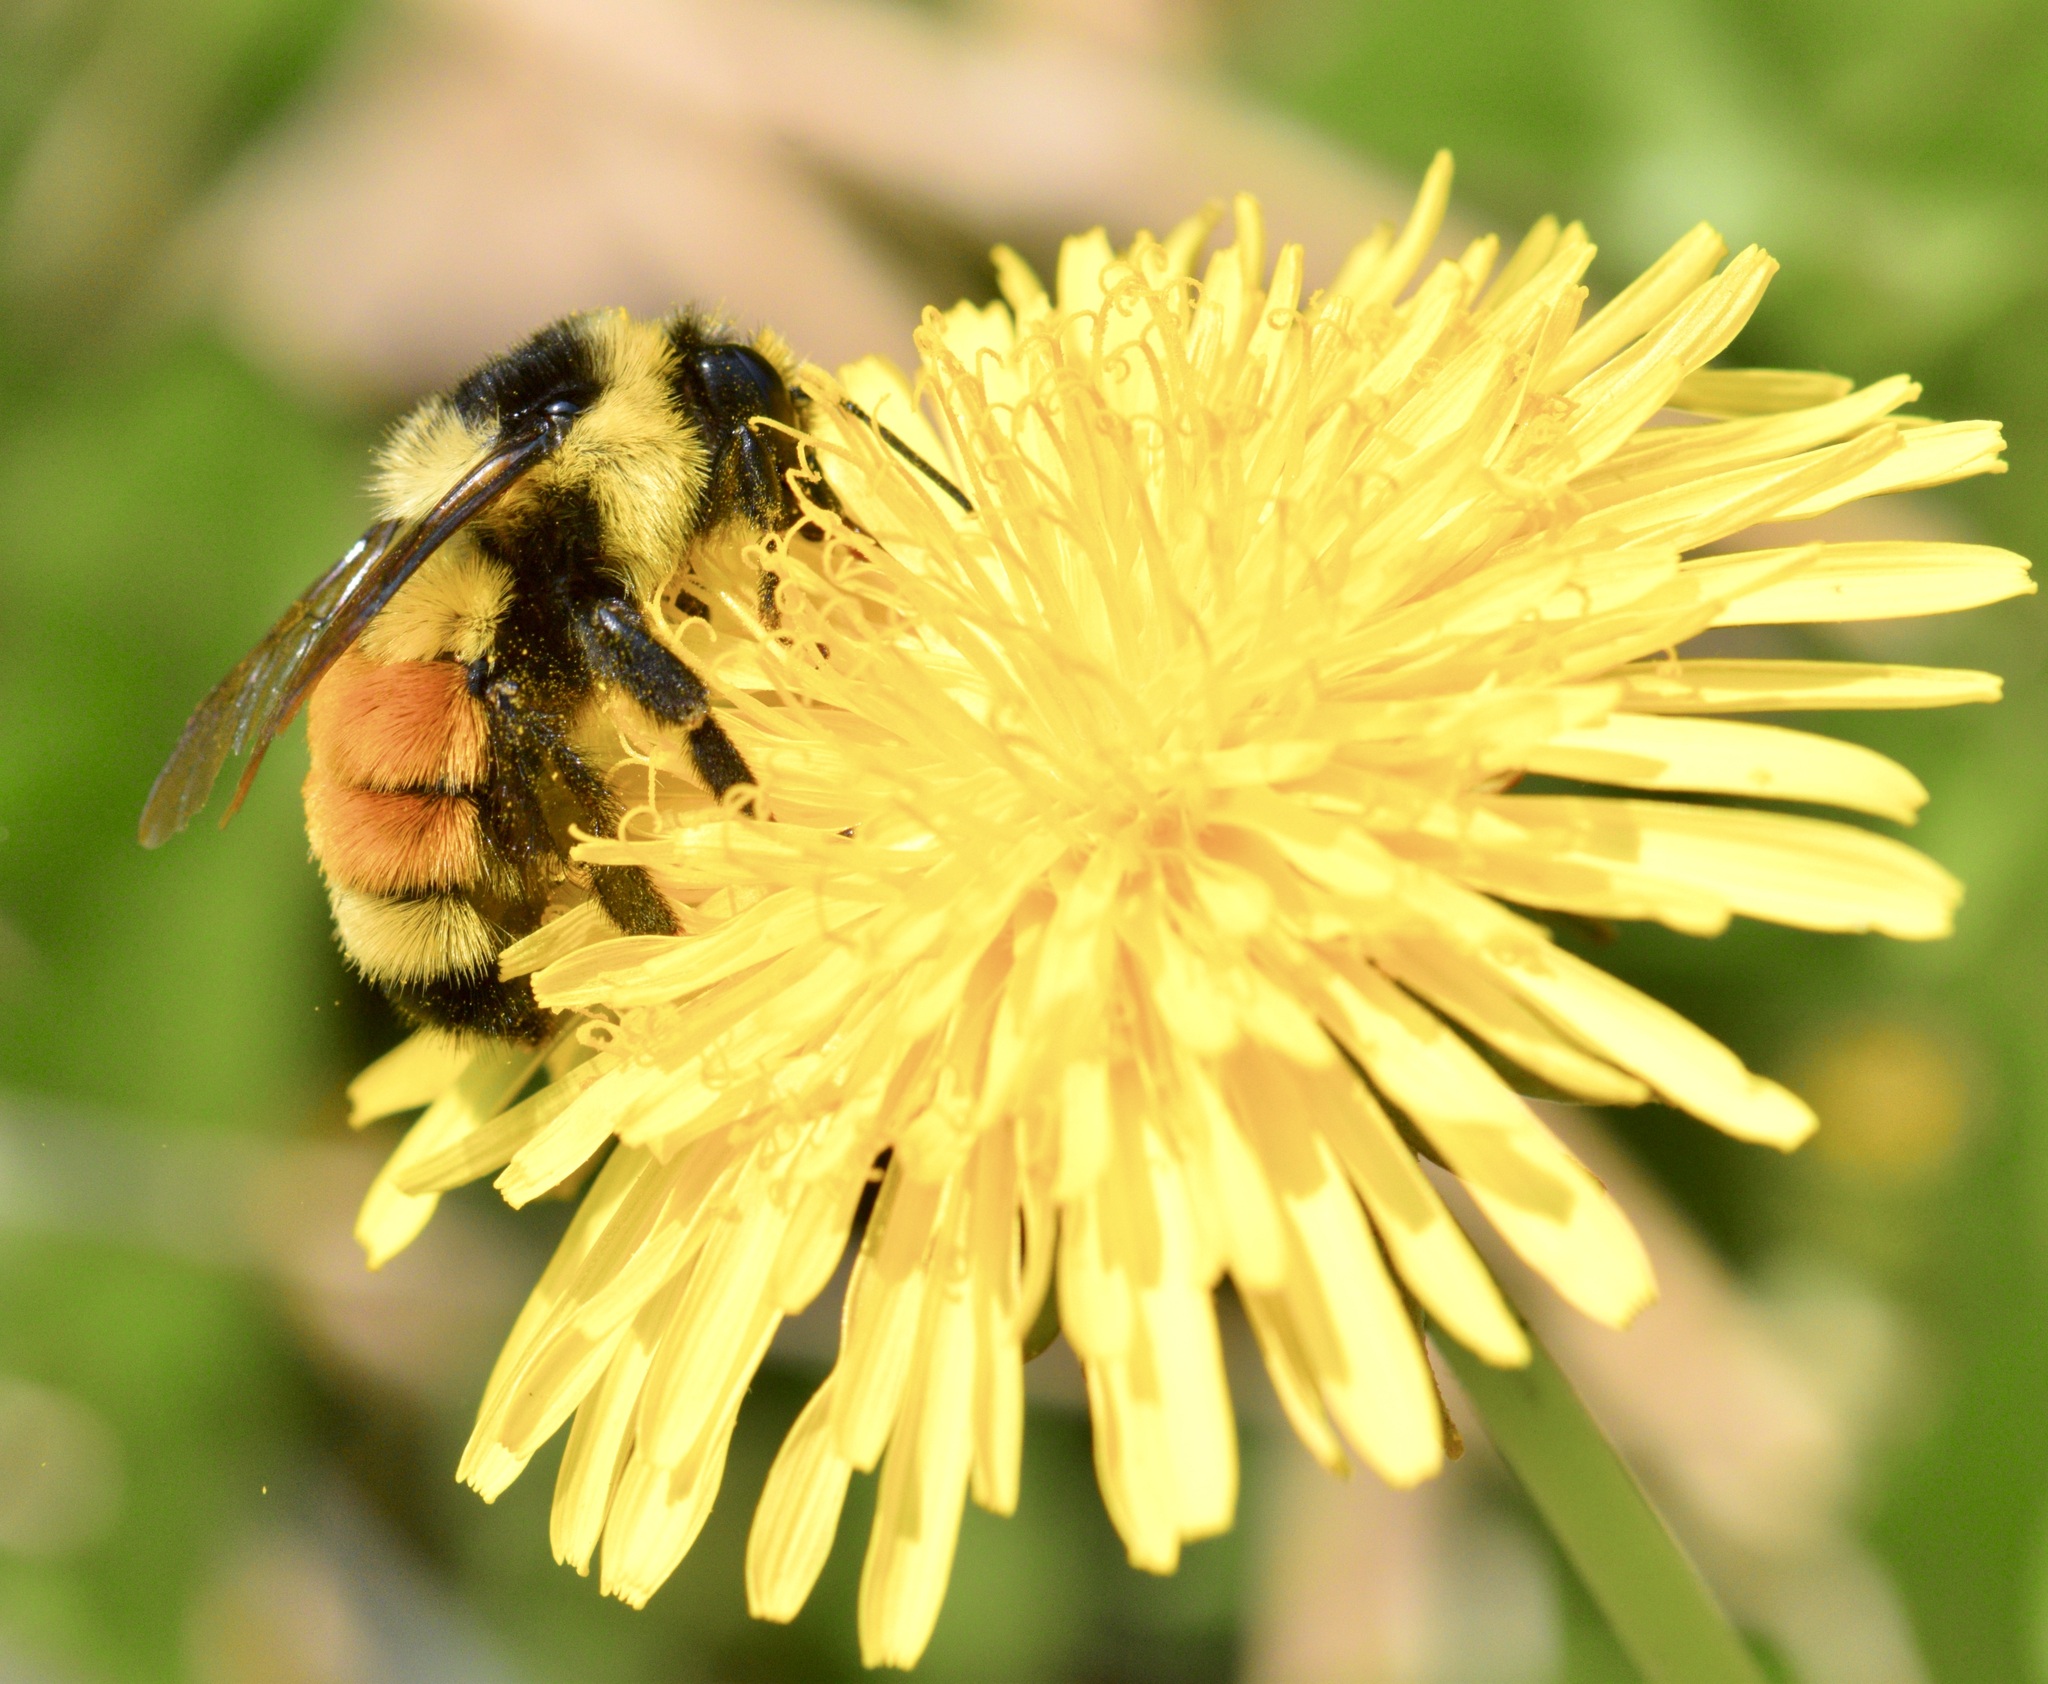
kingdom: Animalia
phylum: Arthropoda
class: Insecta
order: Hymenoptera
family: Apidae
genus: Bombus
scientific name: Bombus ternarius
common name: Tri-colored bumble bee
